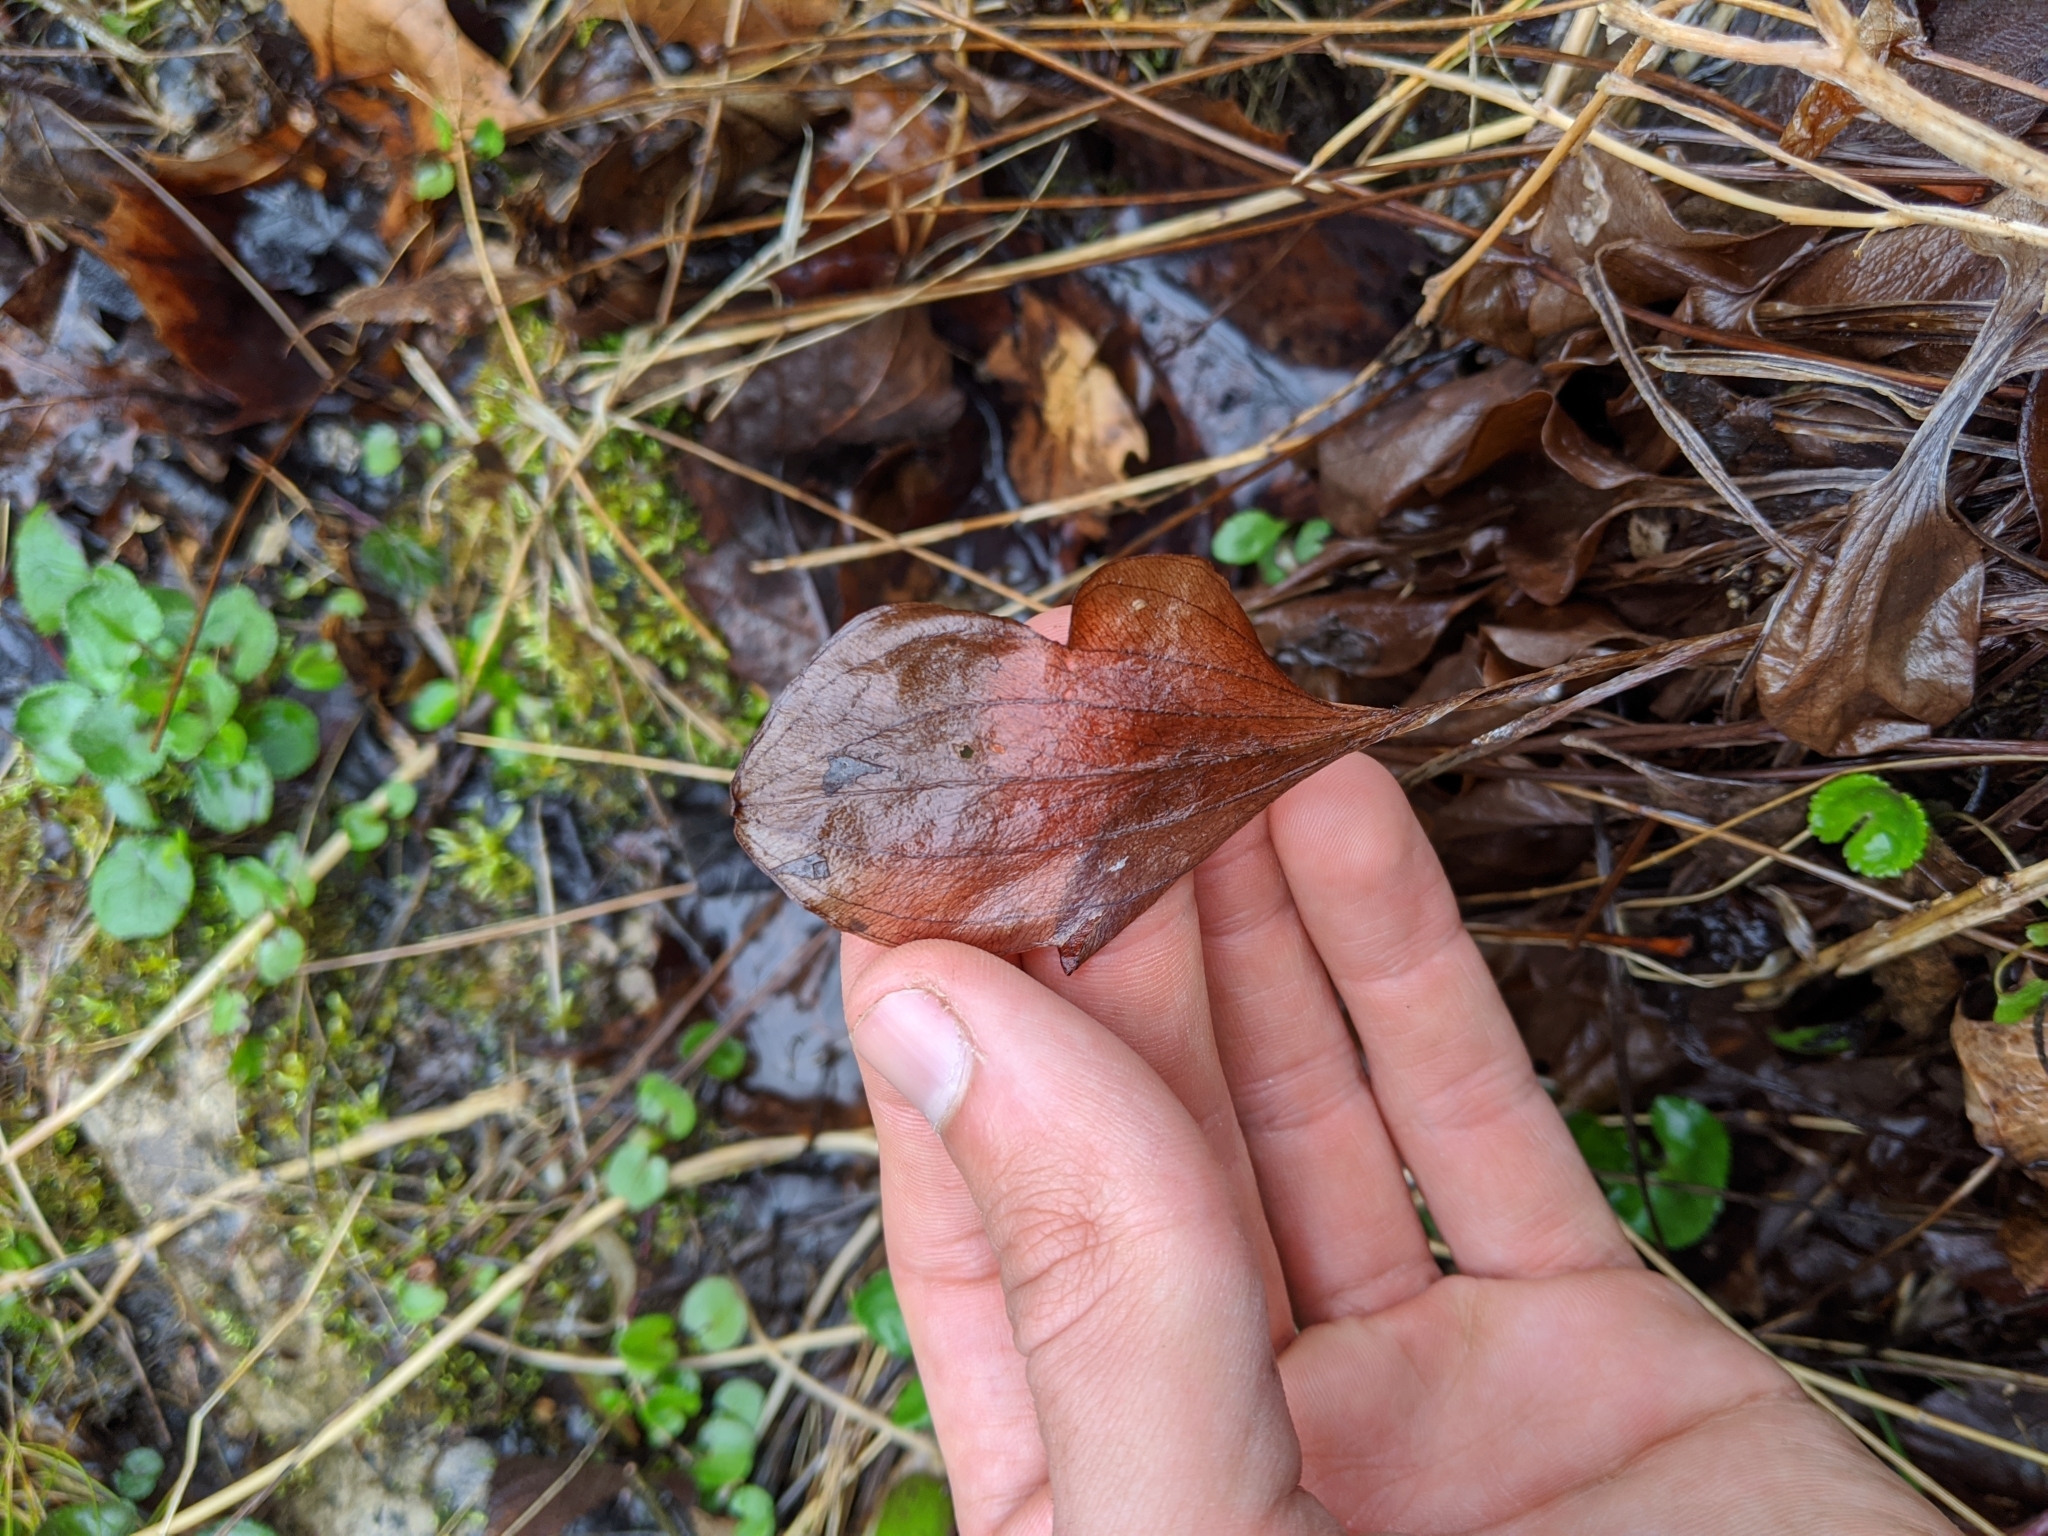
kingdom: Plantae
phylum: Tracheophyta
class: Magnoliopsida
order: Celastrales
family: Parnassiaceae
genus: Parnassia
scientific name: Parnassia grandifolia
